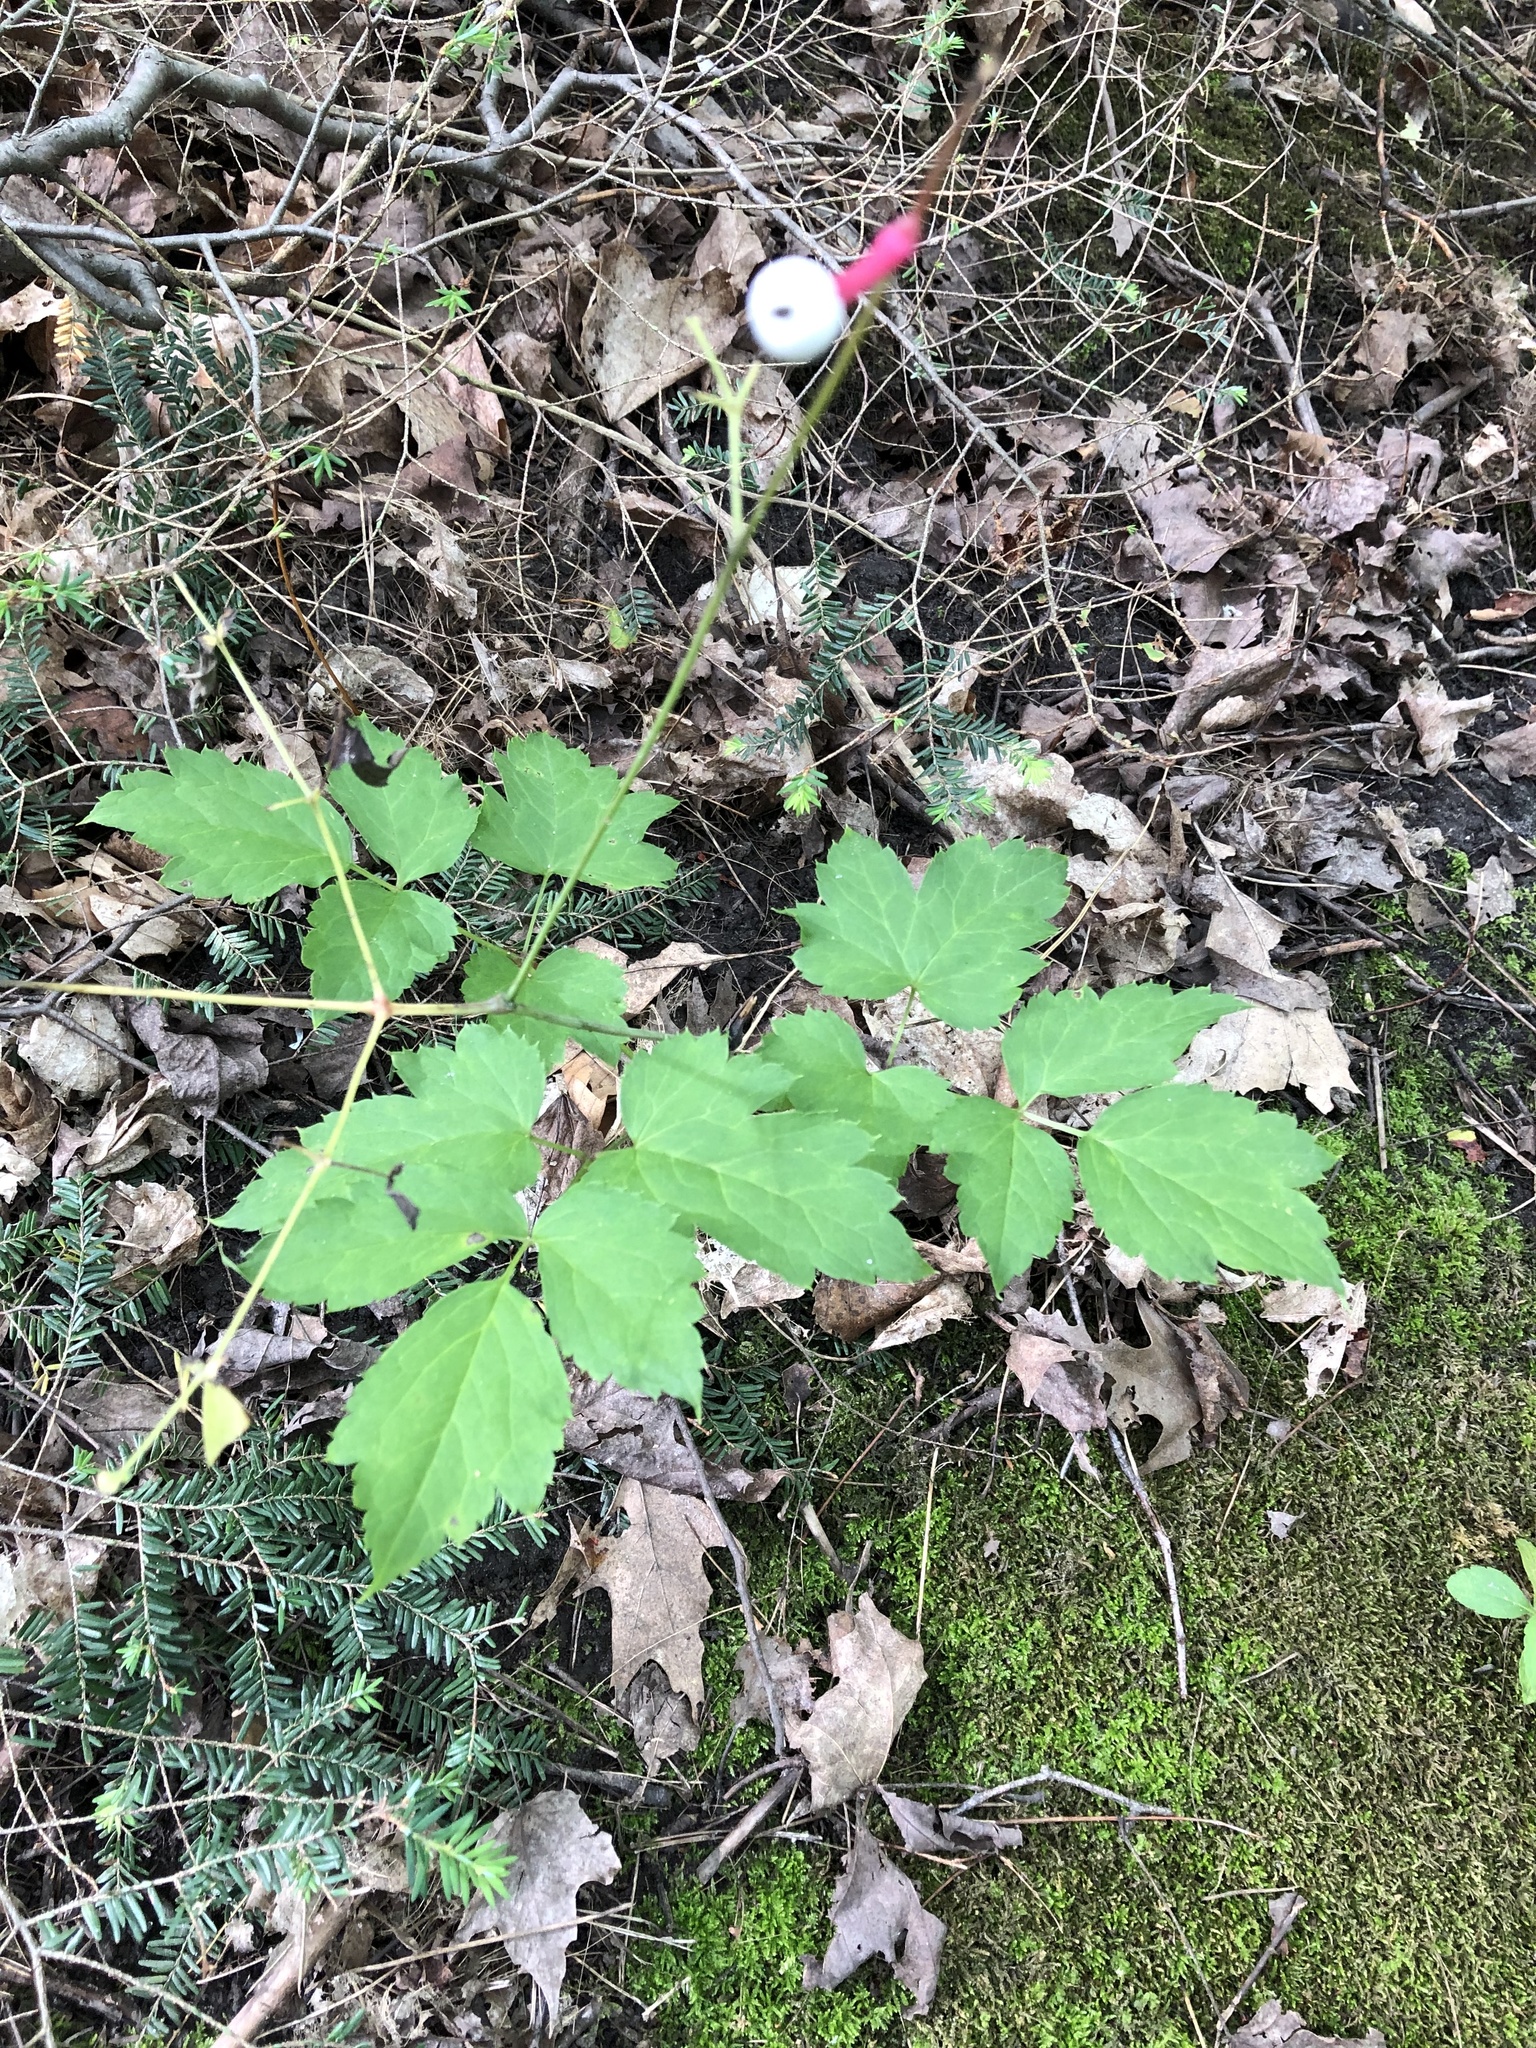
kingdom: Plantae
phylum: Tracheophyta
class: Magnoliopsida
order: Ranunculales
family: Ranunculaceae
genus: Actaea
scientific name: Actaea pachypoda
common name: Doll's-eyes
